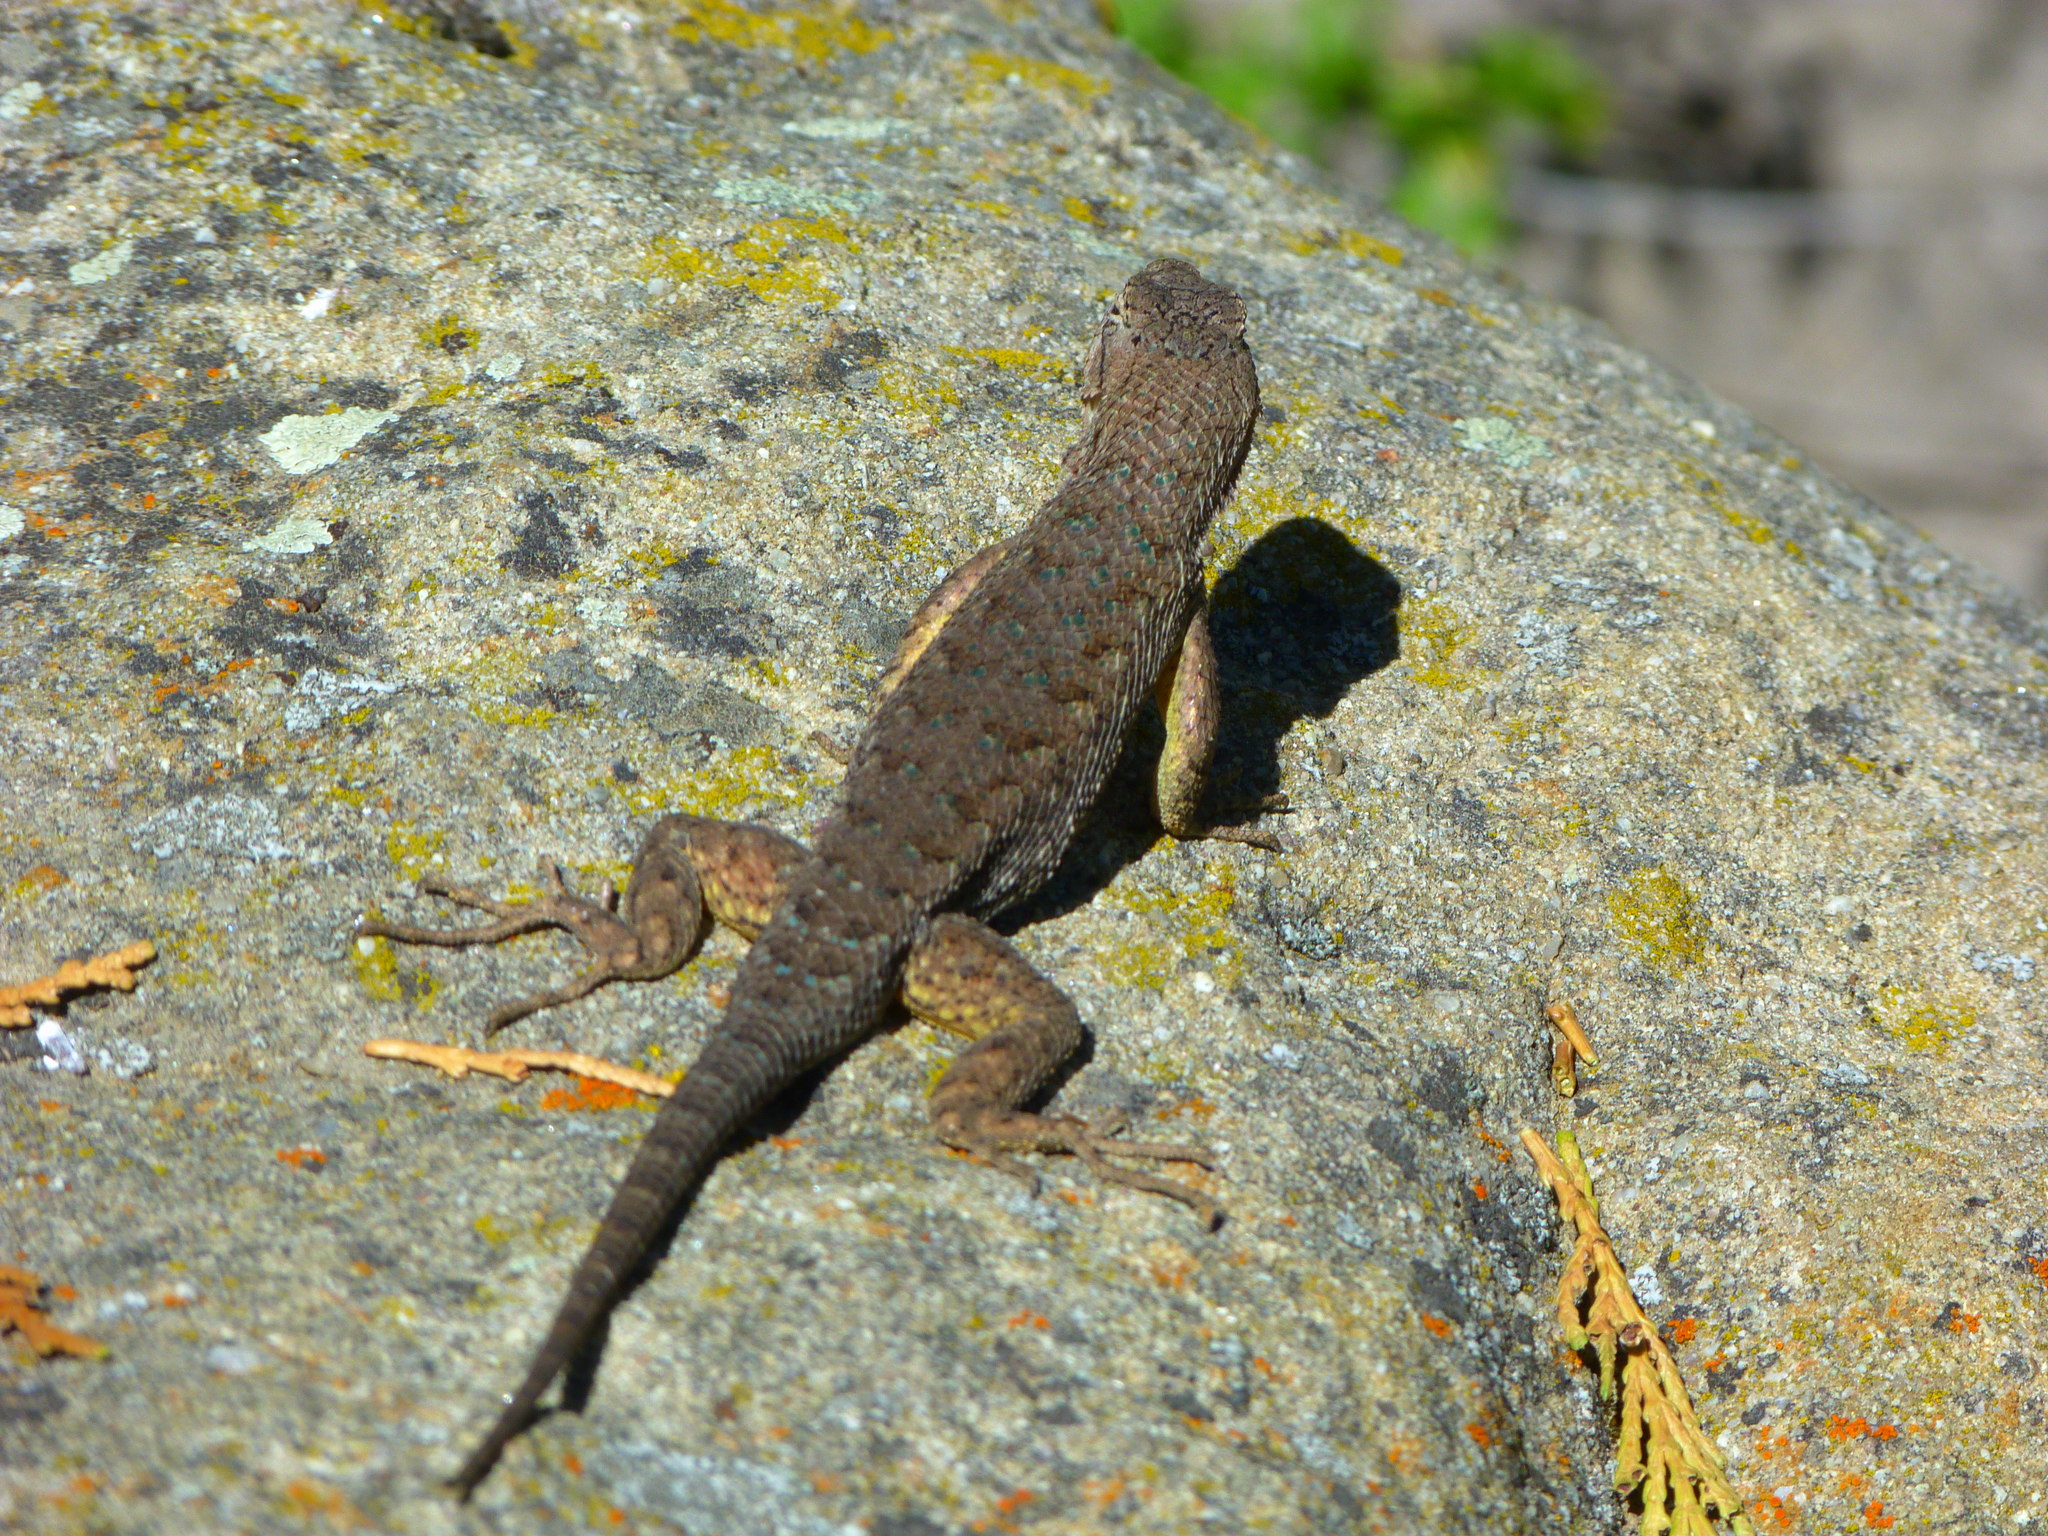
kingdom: Animalia
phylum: Chordata
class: Squamata
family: Phrynosomatidae
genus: Sceloporus
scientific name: Sceloporus occidentalis
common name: Western fence lizard
